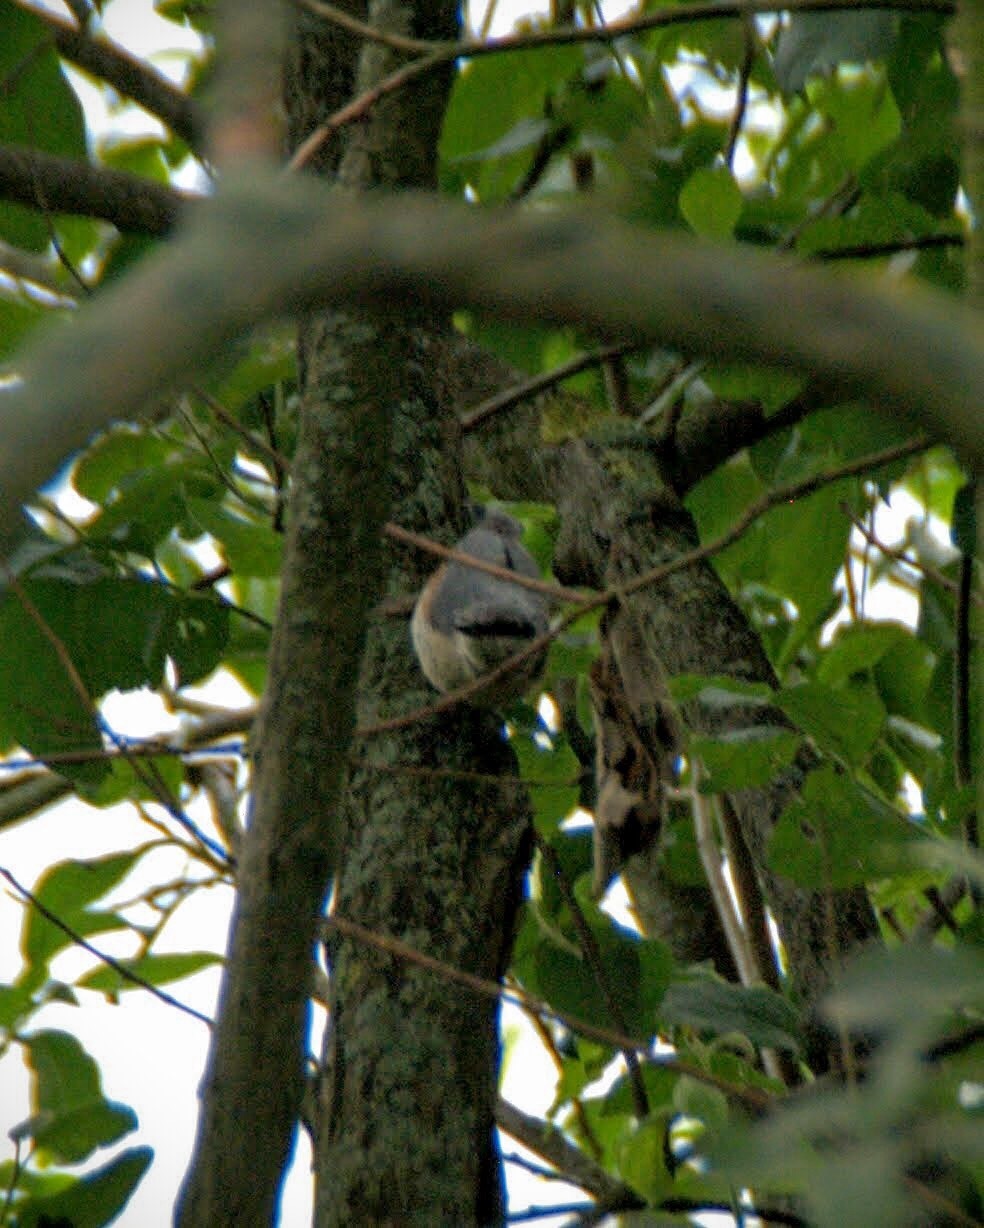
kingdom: Animalia
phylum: Chordata
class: Aves
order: Passeriformes
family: Sittidae
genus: Sitta
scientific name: Sitta europaea
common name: Eurasian nuthatch
